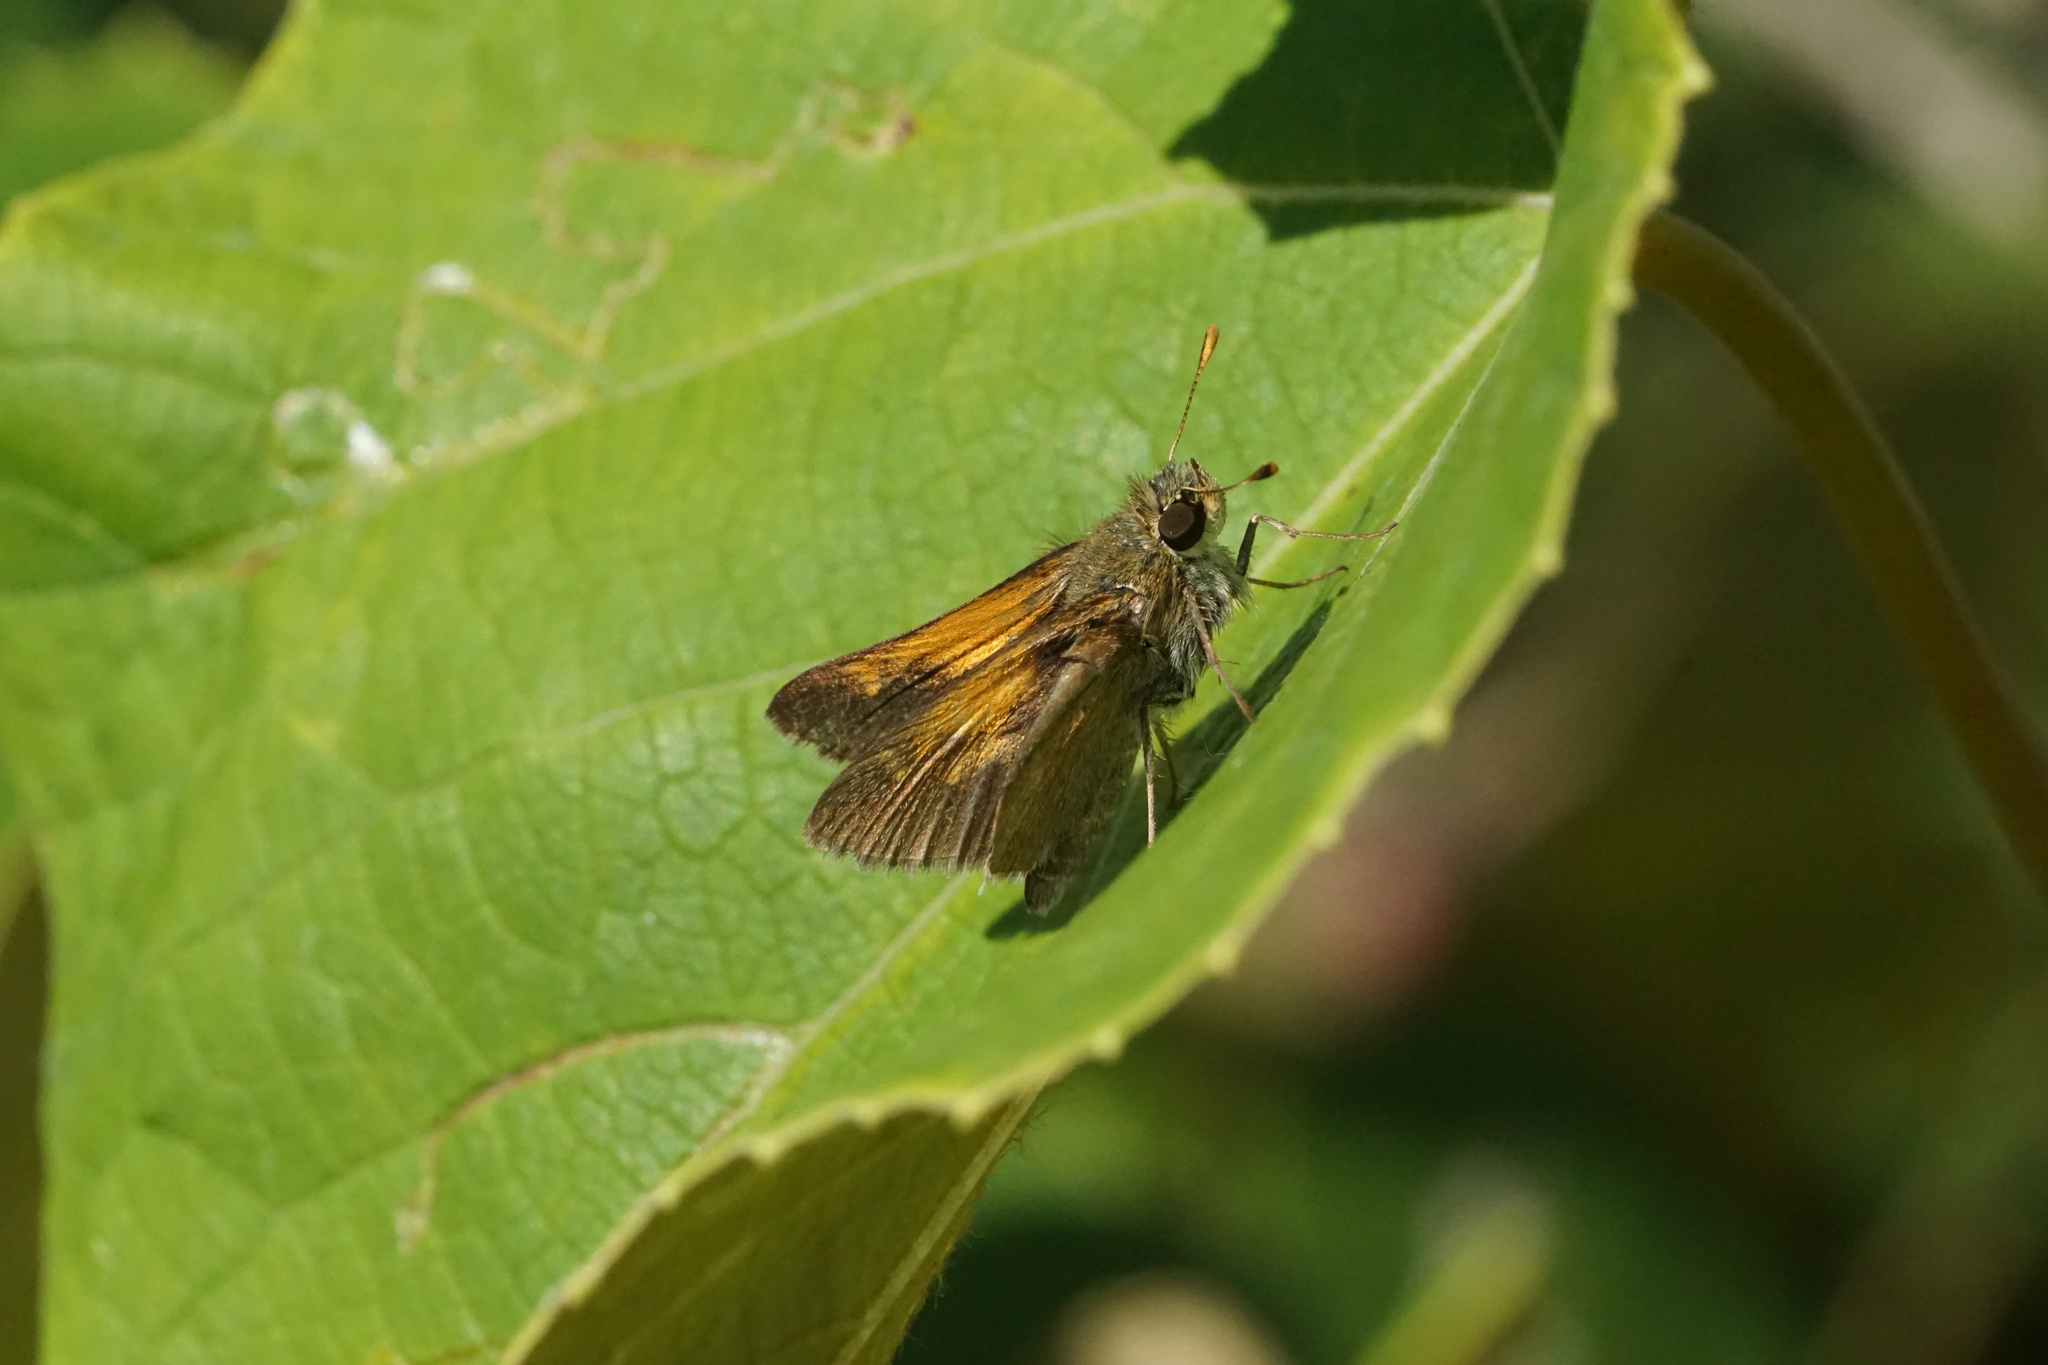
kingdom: Animalia
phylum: Arthropoda
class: Insecta
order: Lepidoptera
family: Hesperiidae
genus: Polites
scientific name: Polites themistocles
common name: Tawny-edged skipper
